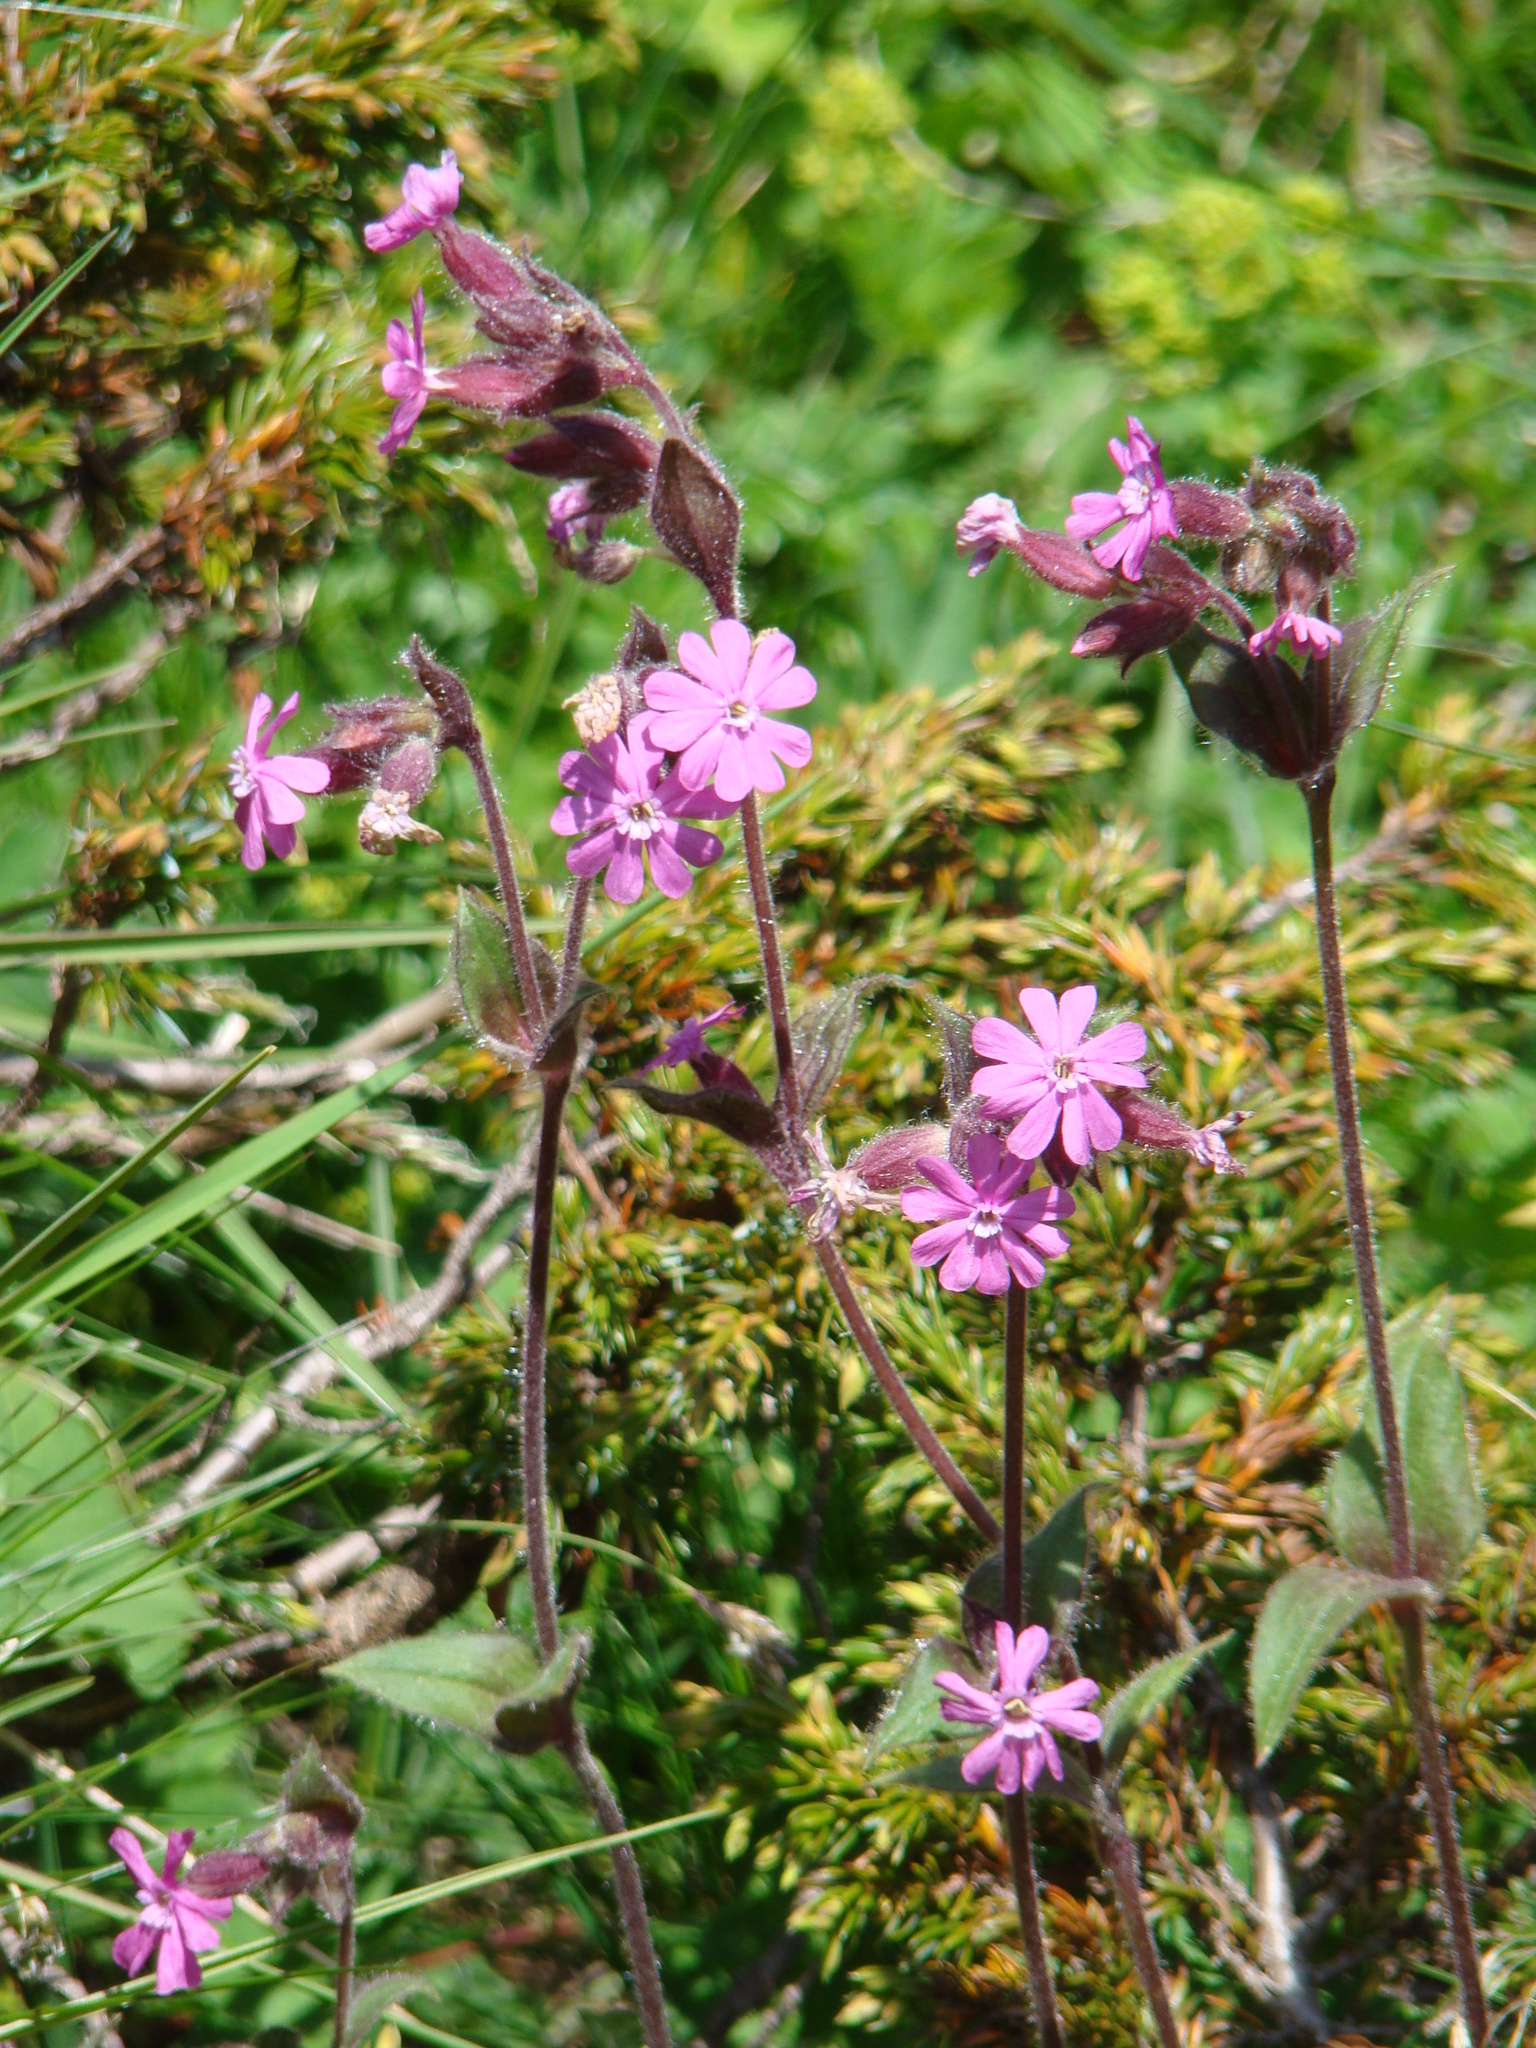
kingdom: Plantae
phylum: Tracheophyta
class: Magnoliopsida
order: Caryophyllales
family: Caryophyllaceae
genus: Silene
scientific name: Silene dioica
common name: Red campion
